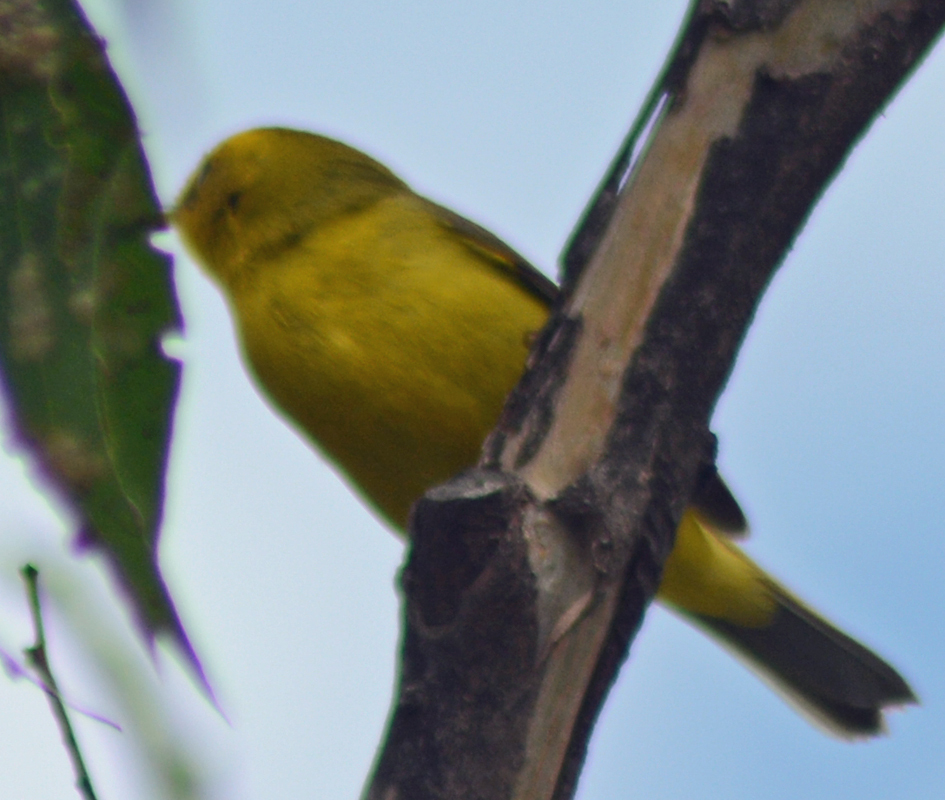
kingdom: Animalia
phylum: Chordata
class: Aves
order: Passeriformes
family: Parulidae
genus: Cardellina
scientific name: Cardellina pusilla
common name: Wilson's warbler
